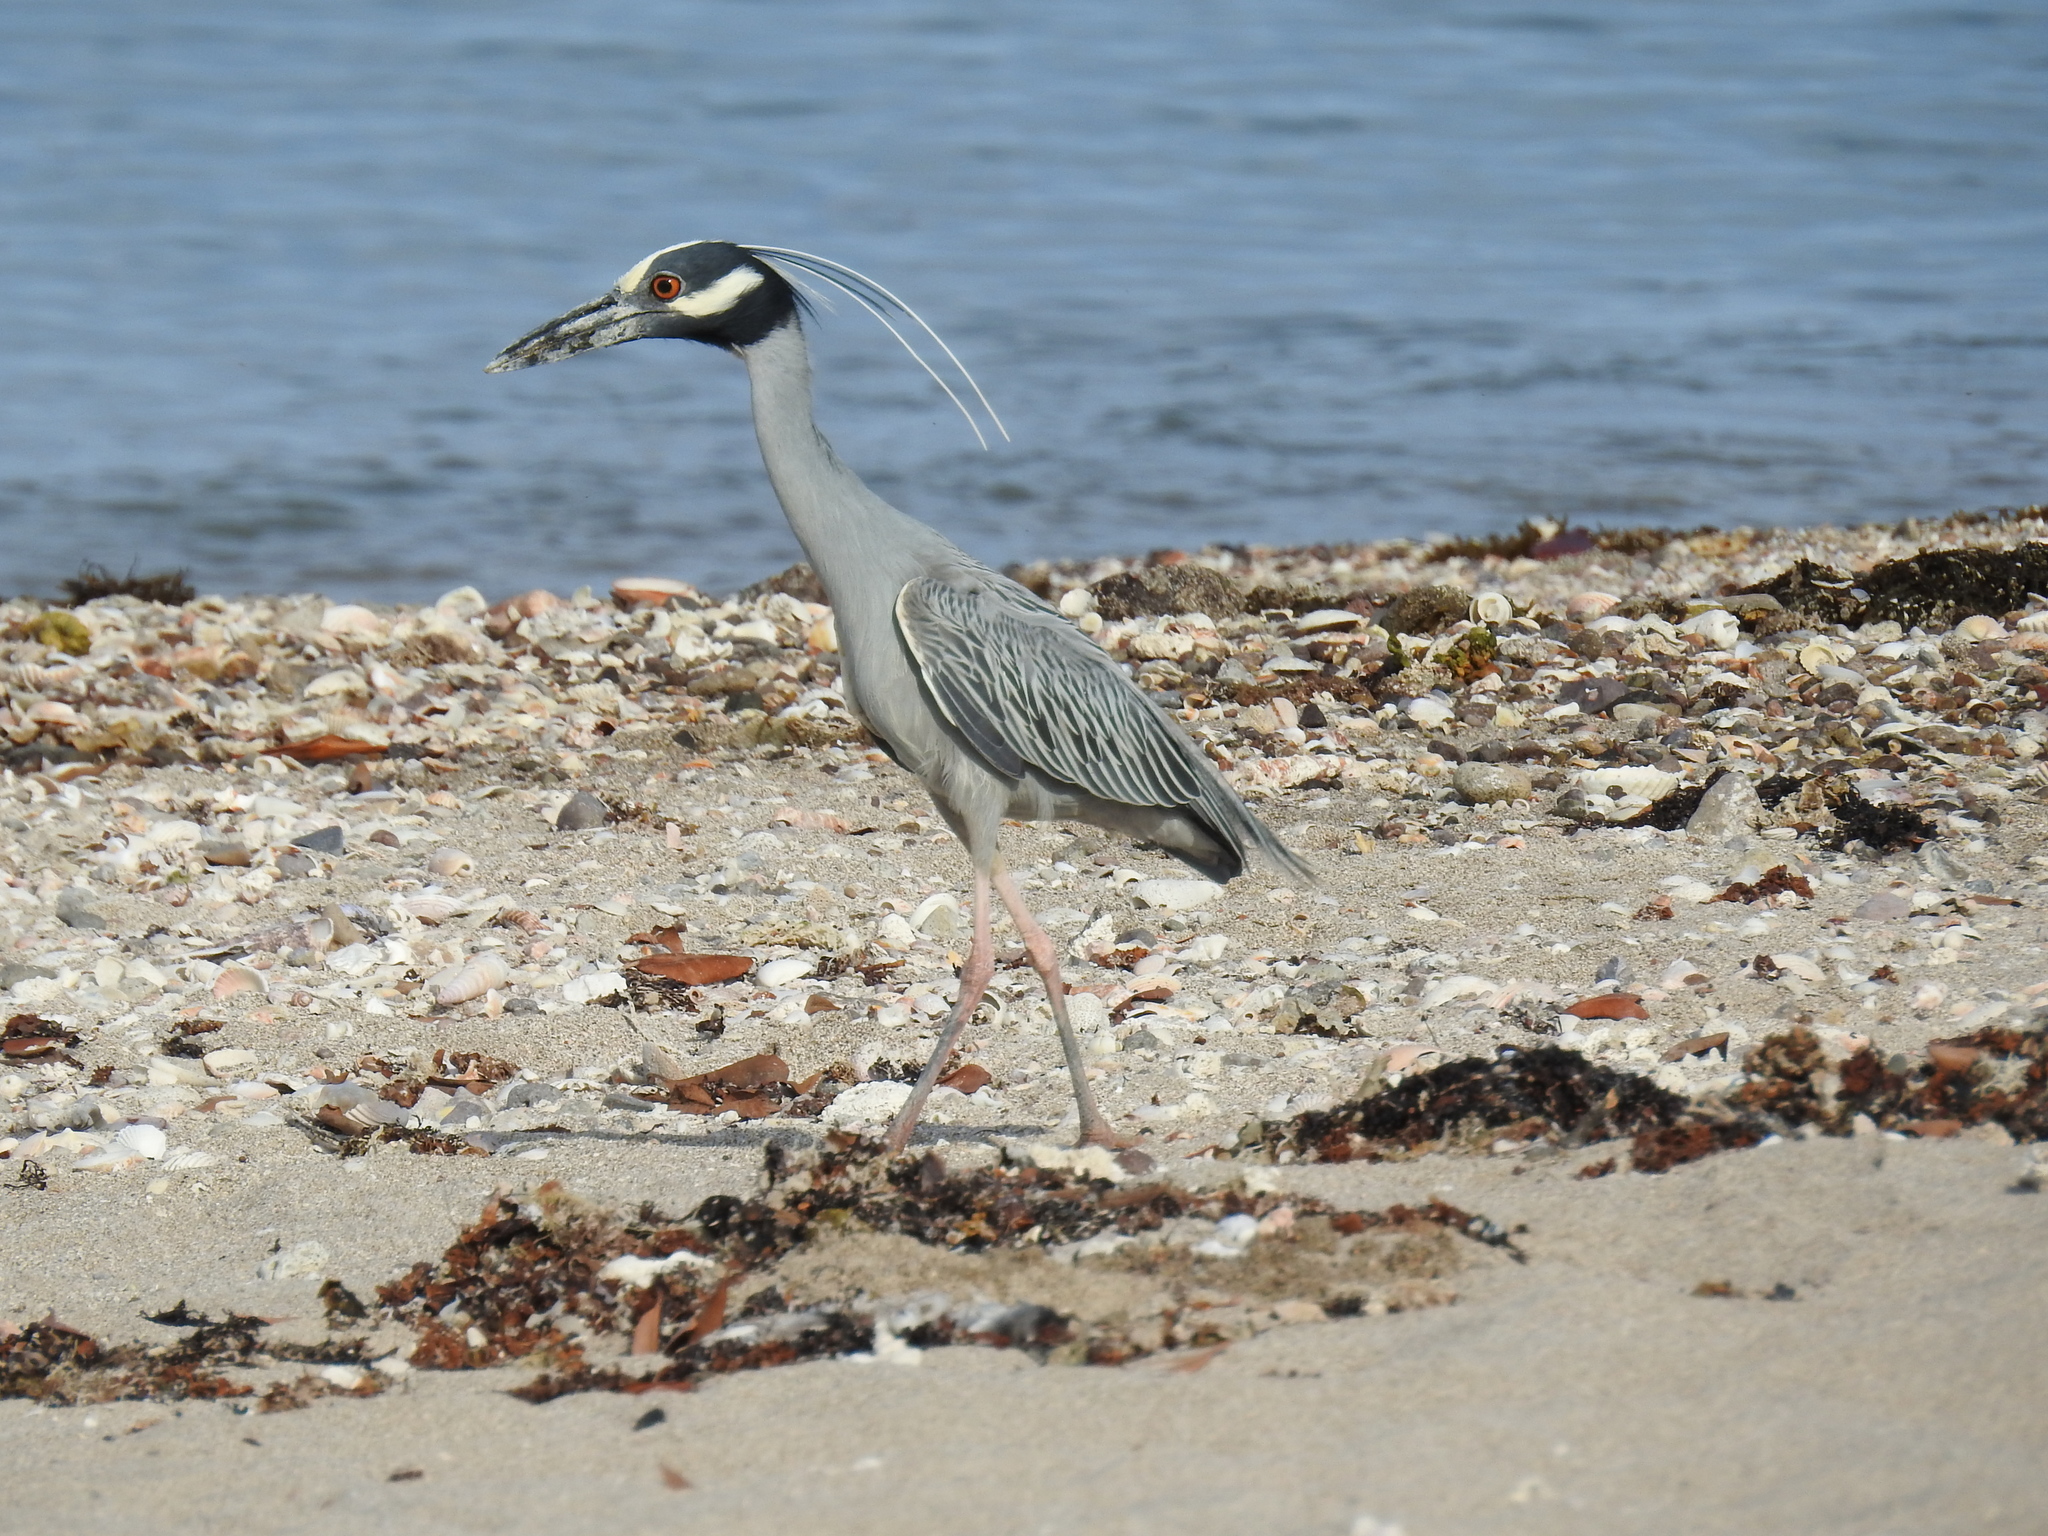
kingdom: Animalia
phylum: Chordata
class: Aves
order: Pelecaniformes
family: Ardeidae
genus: Nyctanassa
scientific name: Nyctanassa violacea
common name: Yellow-crowned night heron
